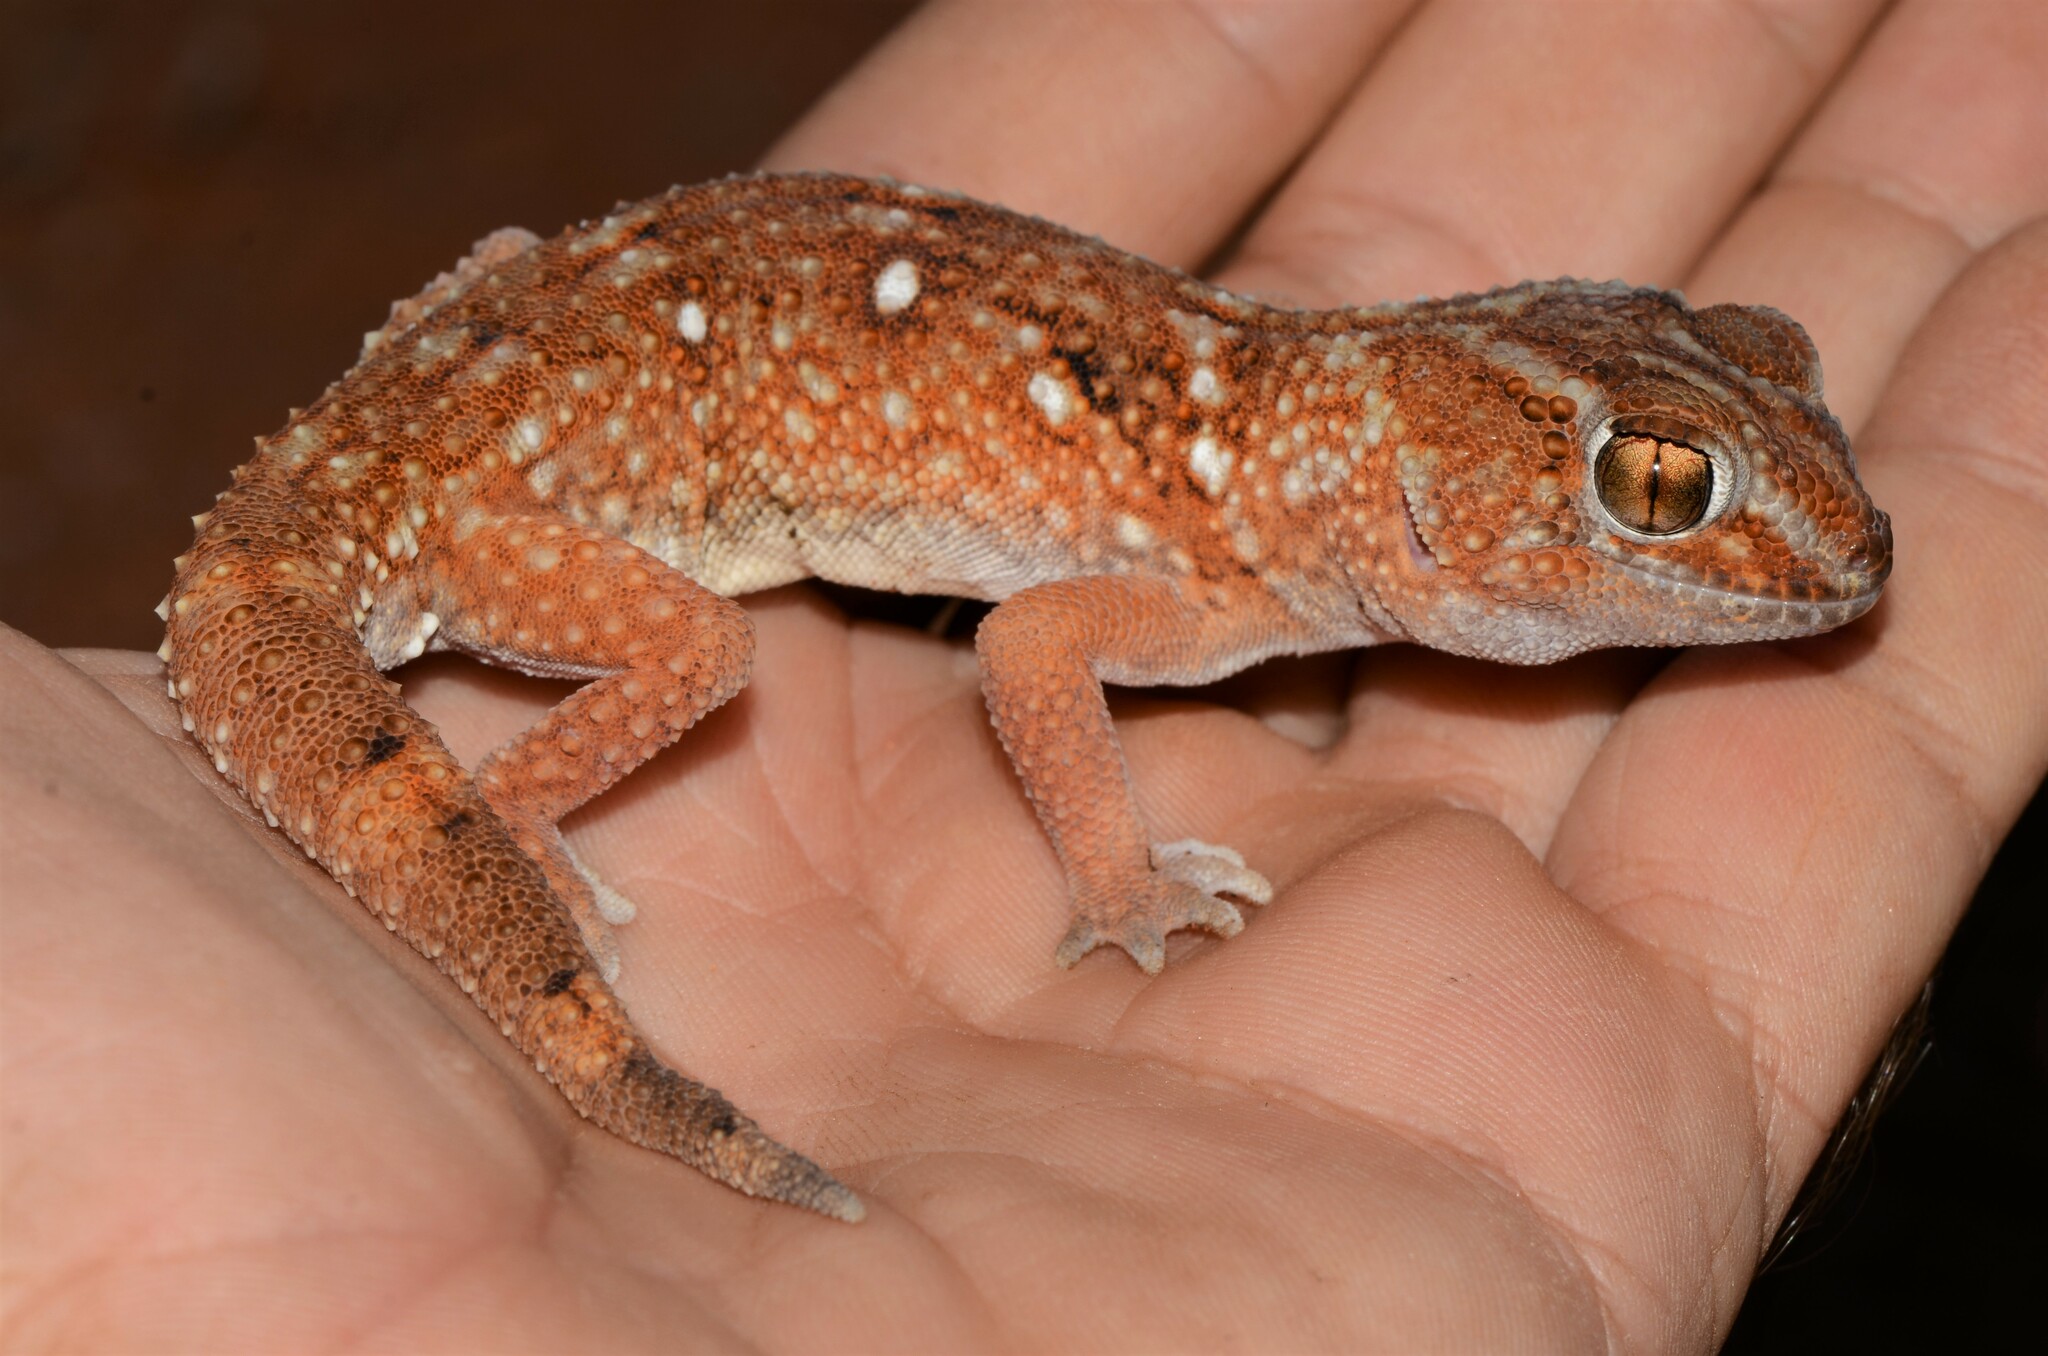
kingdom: Animalia
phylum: Chordata
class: Squamata
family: Gekkonidae
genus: Chondrodactylus
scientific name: Chondrodactylus angulifer
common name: Common giant ground gecko
